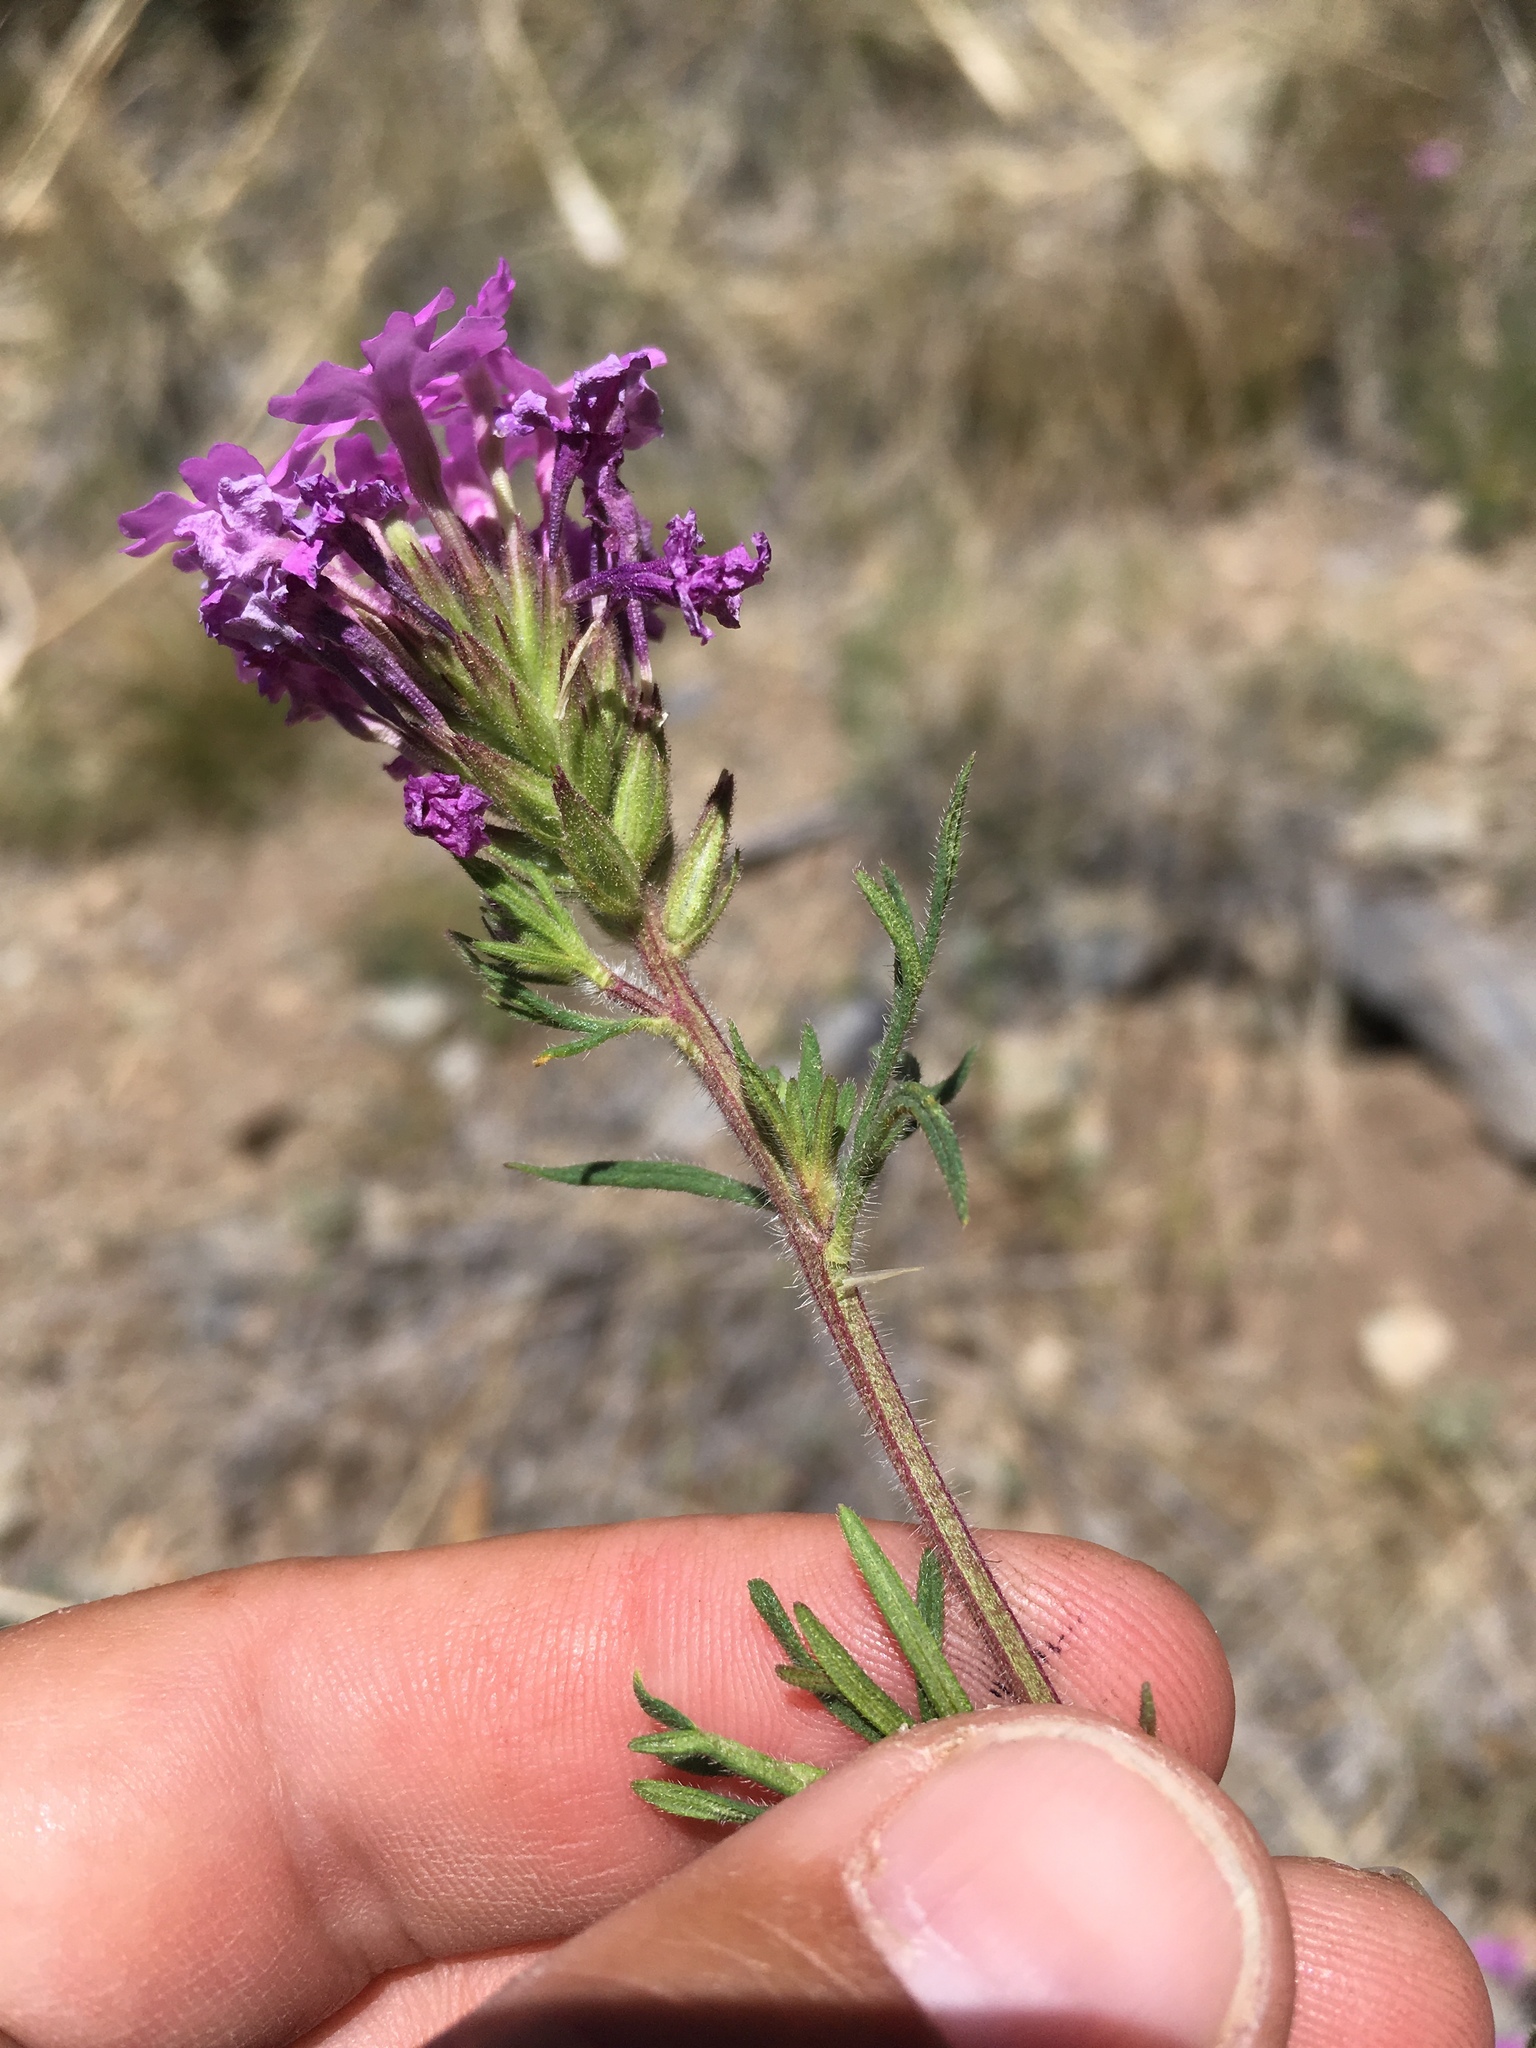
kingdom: Plantae
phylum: Tracheophyta
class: Magnoliopsida
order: Lamiales
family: Verbenaceae
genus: Verbena
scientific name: Verbena bipinnatifida
